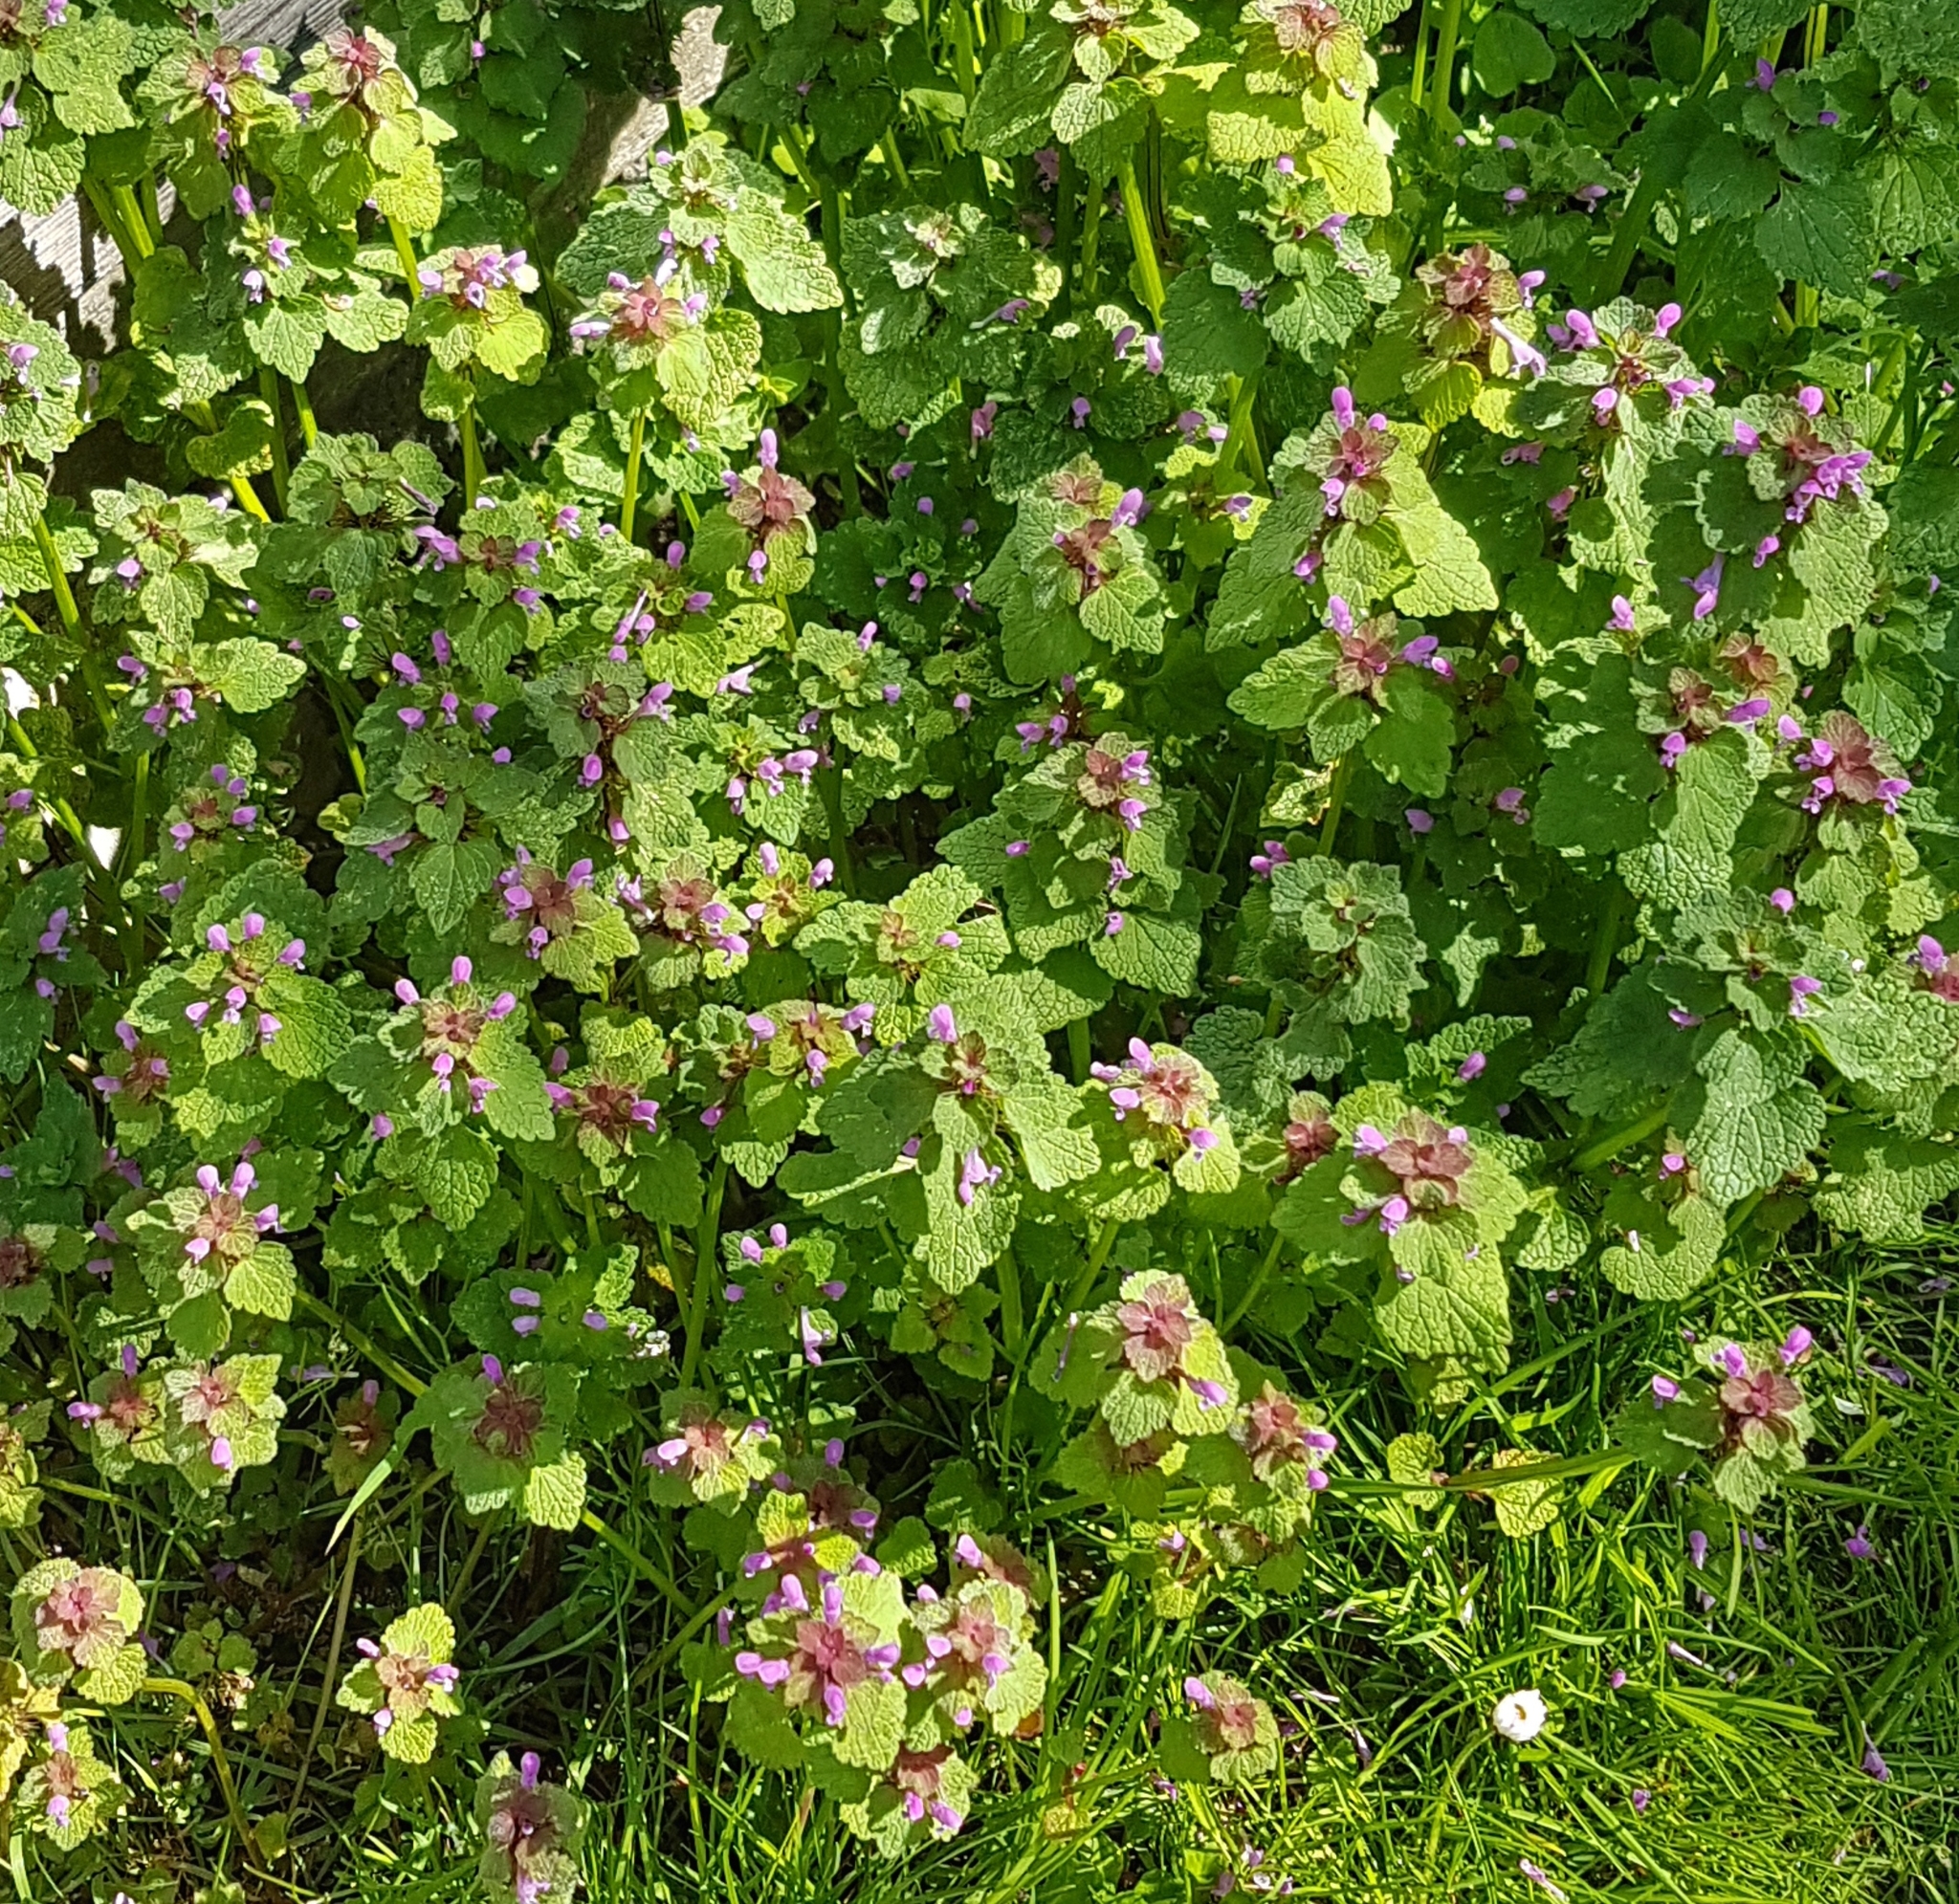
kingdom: Plantae
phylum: Tracheophyta
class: Magnoliopsida
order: Lamiales
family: Lamiaceae
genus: Lamium
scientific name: Lamium purpureum
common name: Red dead-nettle
